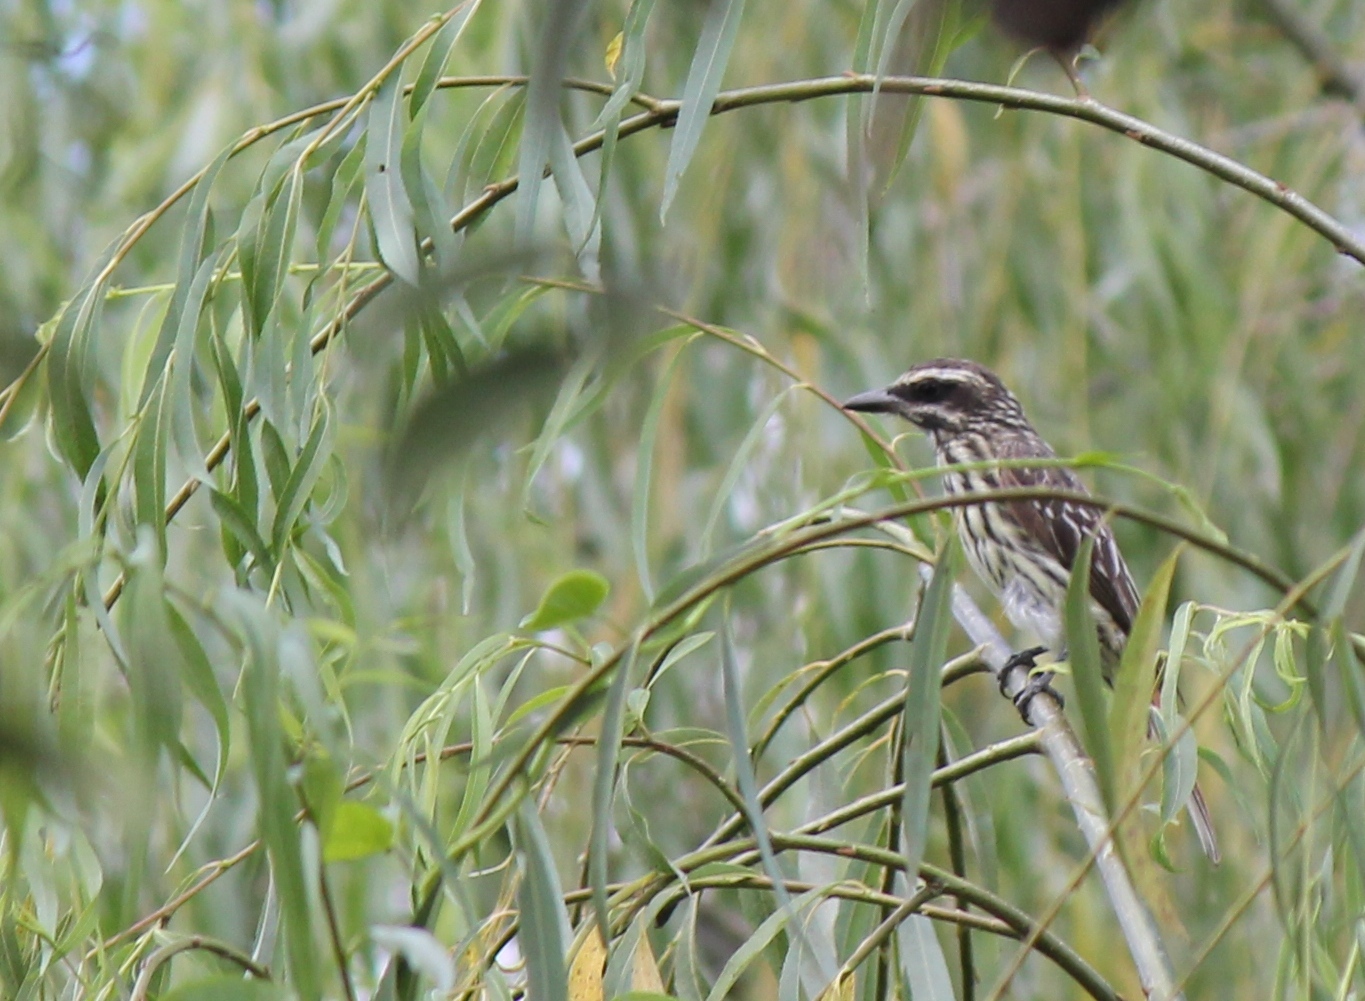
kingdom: Animalia
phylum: Chordata
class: Aves
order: Passeriformes
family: Tyrannidae
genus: Myiodynastes
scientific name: Myiodynastes maculatus
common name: Streaked flycatcher
